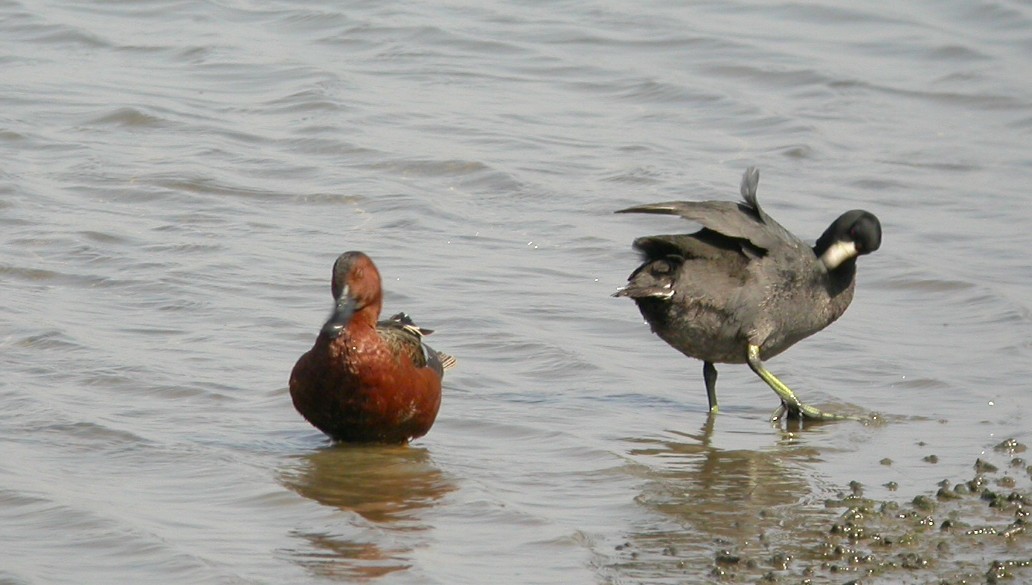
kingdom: Animalia
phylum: Chordata
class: Aves
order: Anseriformes
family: Anatidae
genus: Spatula
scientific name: Spatula cyanoptera
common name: Cinnamon teal
